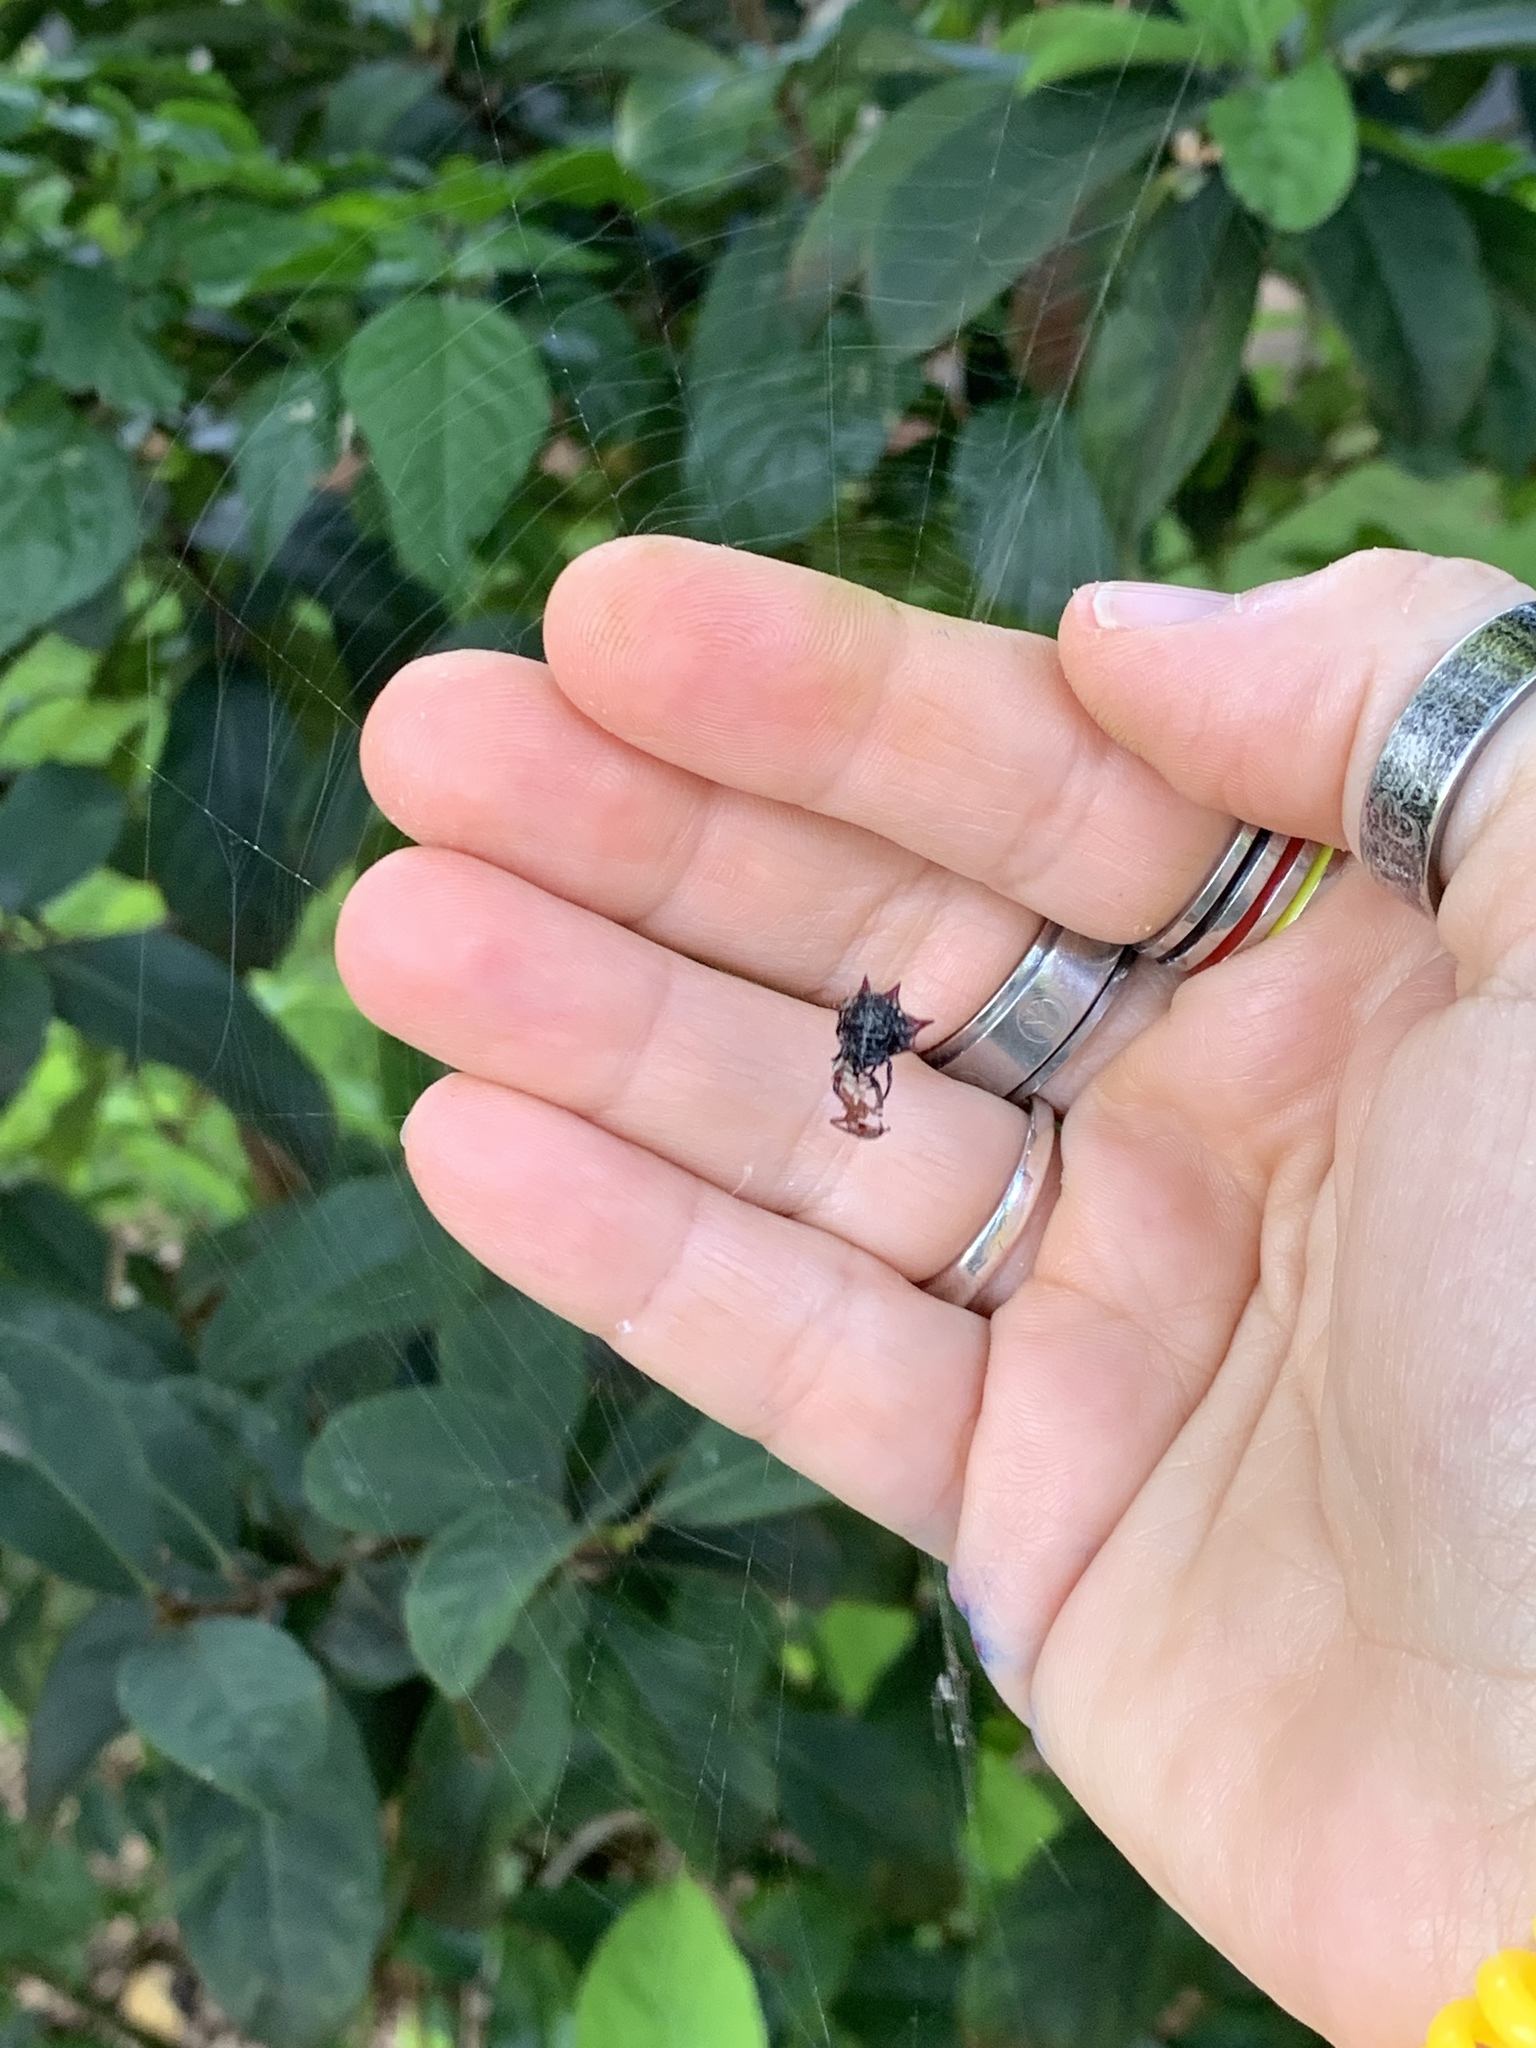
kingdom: Animalia
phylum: Arthropoda
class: Arachnida
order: Araneae
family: Araneidae
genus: Gasteracantha
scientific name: Gasteracantha cancriformis
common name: Orb weavers
